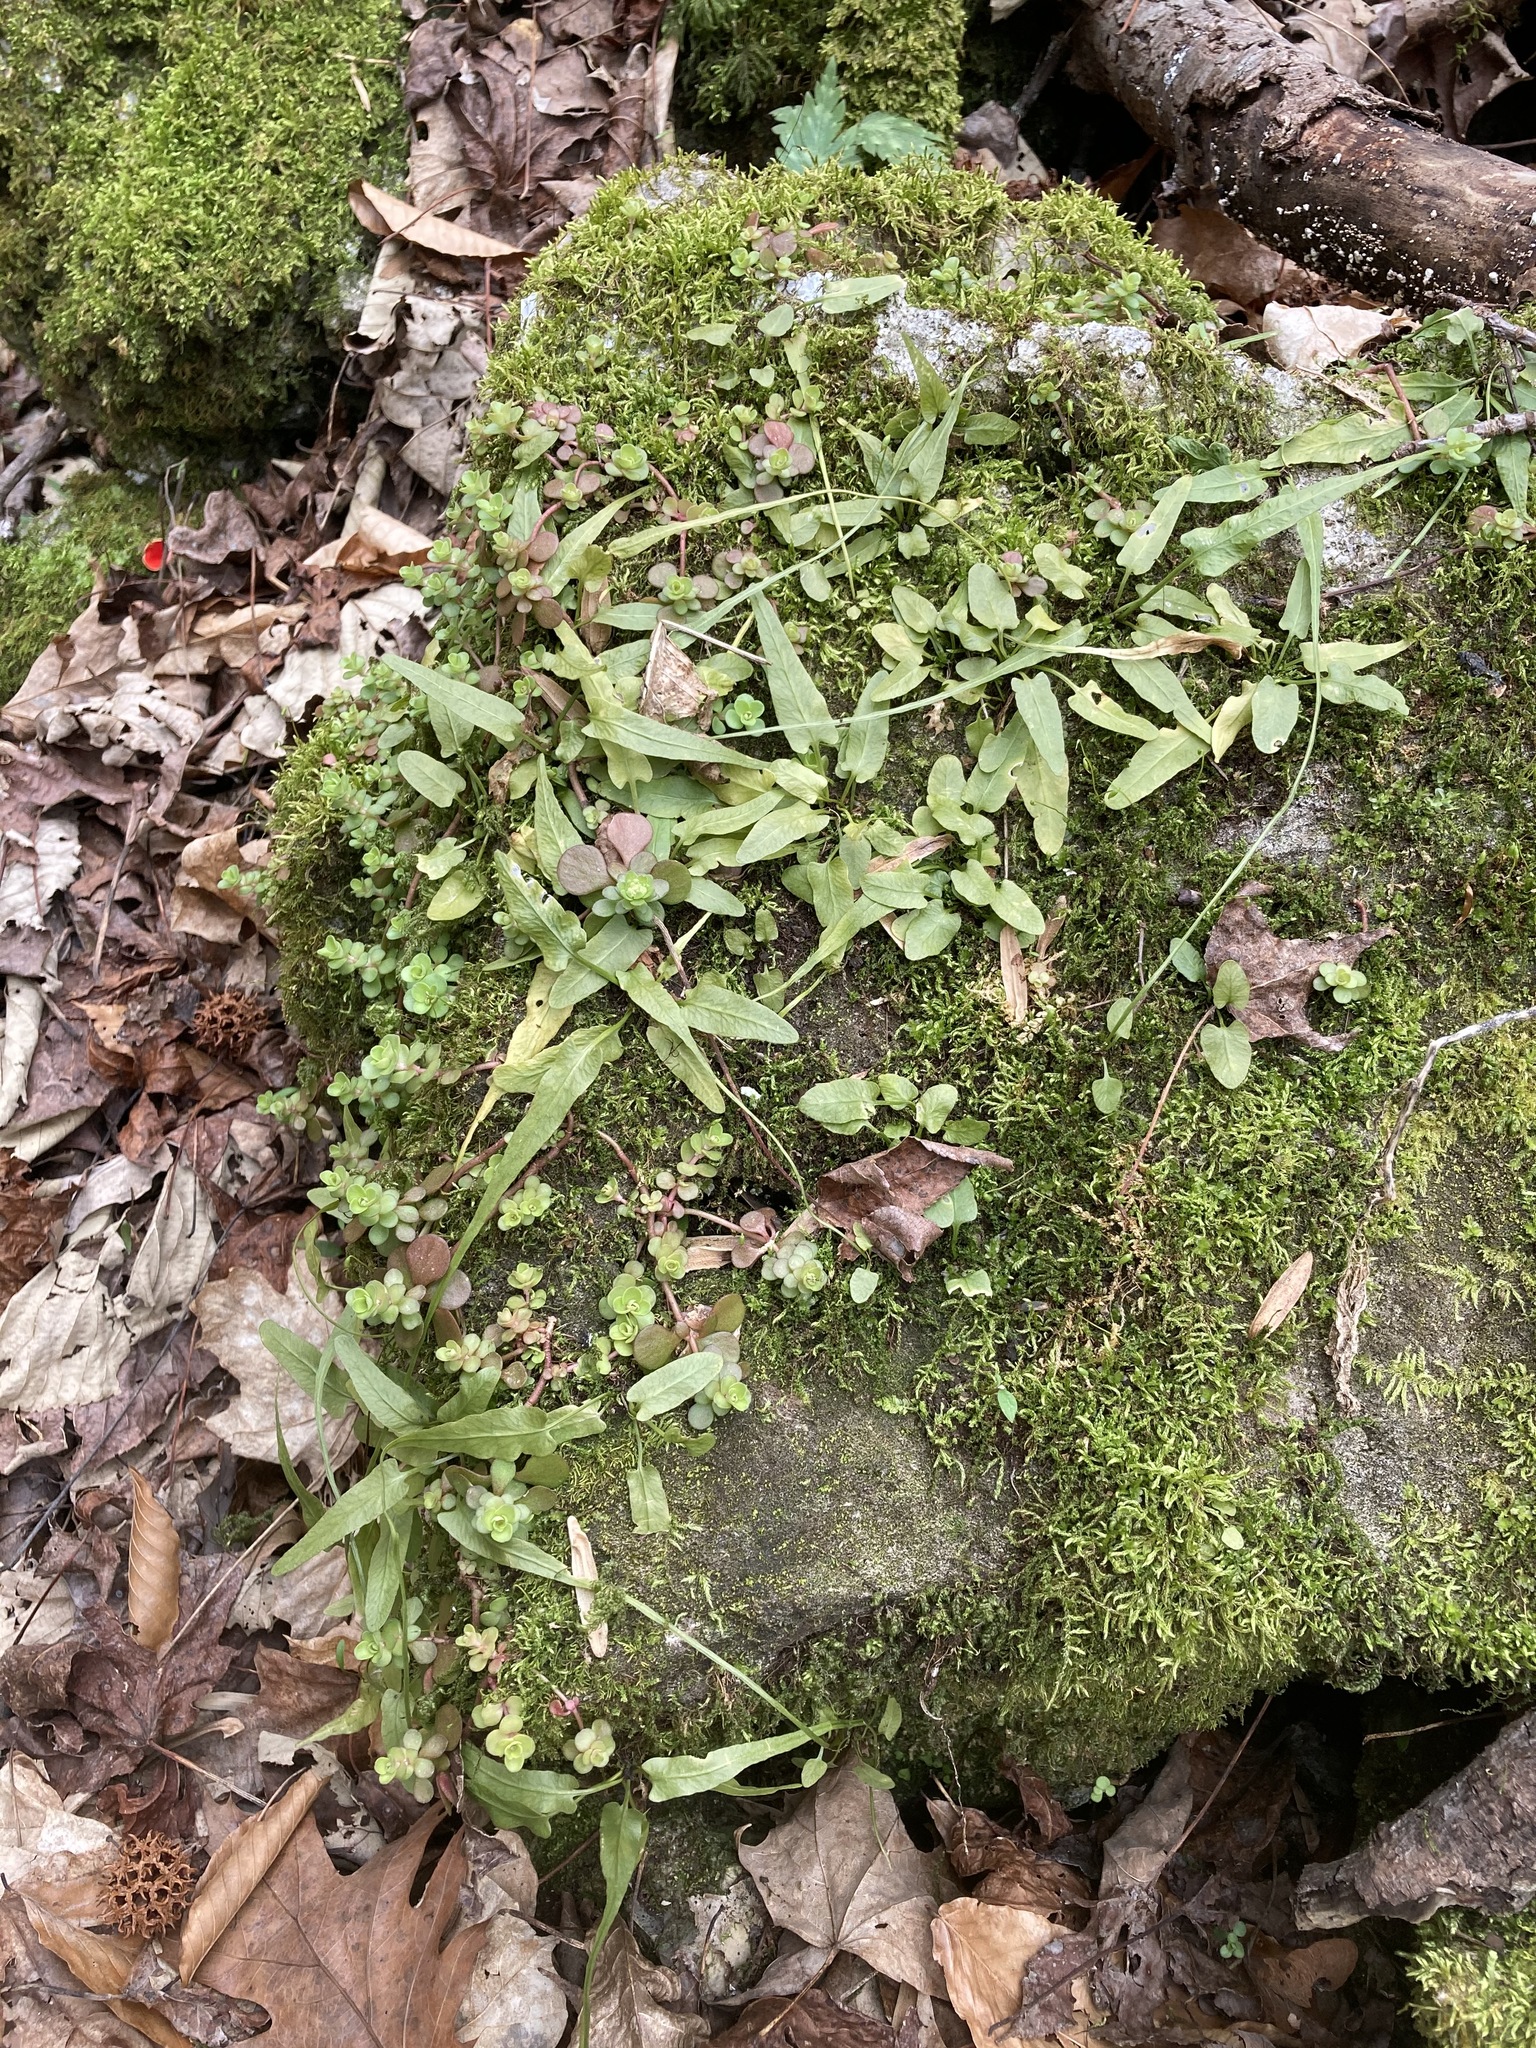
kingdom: Plantae
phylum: Tracheophyta
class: Polypodiopsida
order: Polypodiales
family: Aspleniaceae
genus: Asplenium
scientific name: Asplenium rhizophyllum
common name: Walking fern
